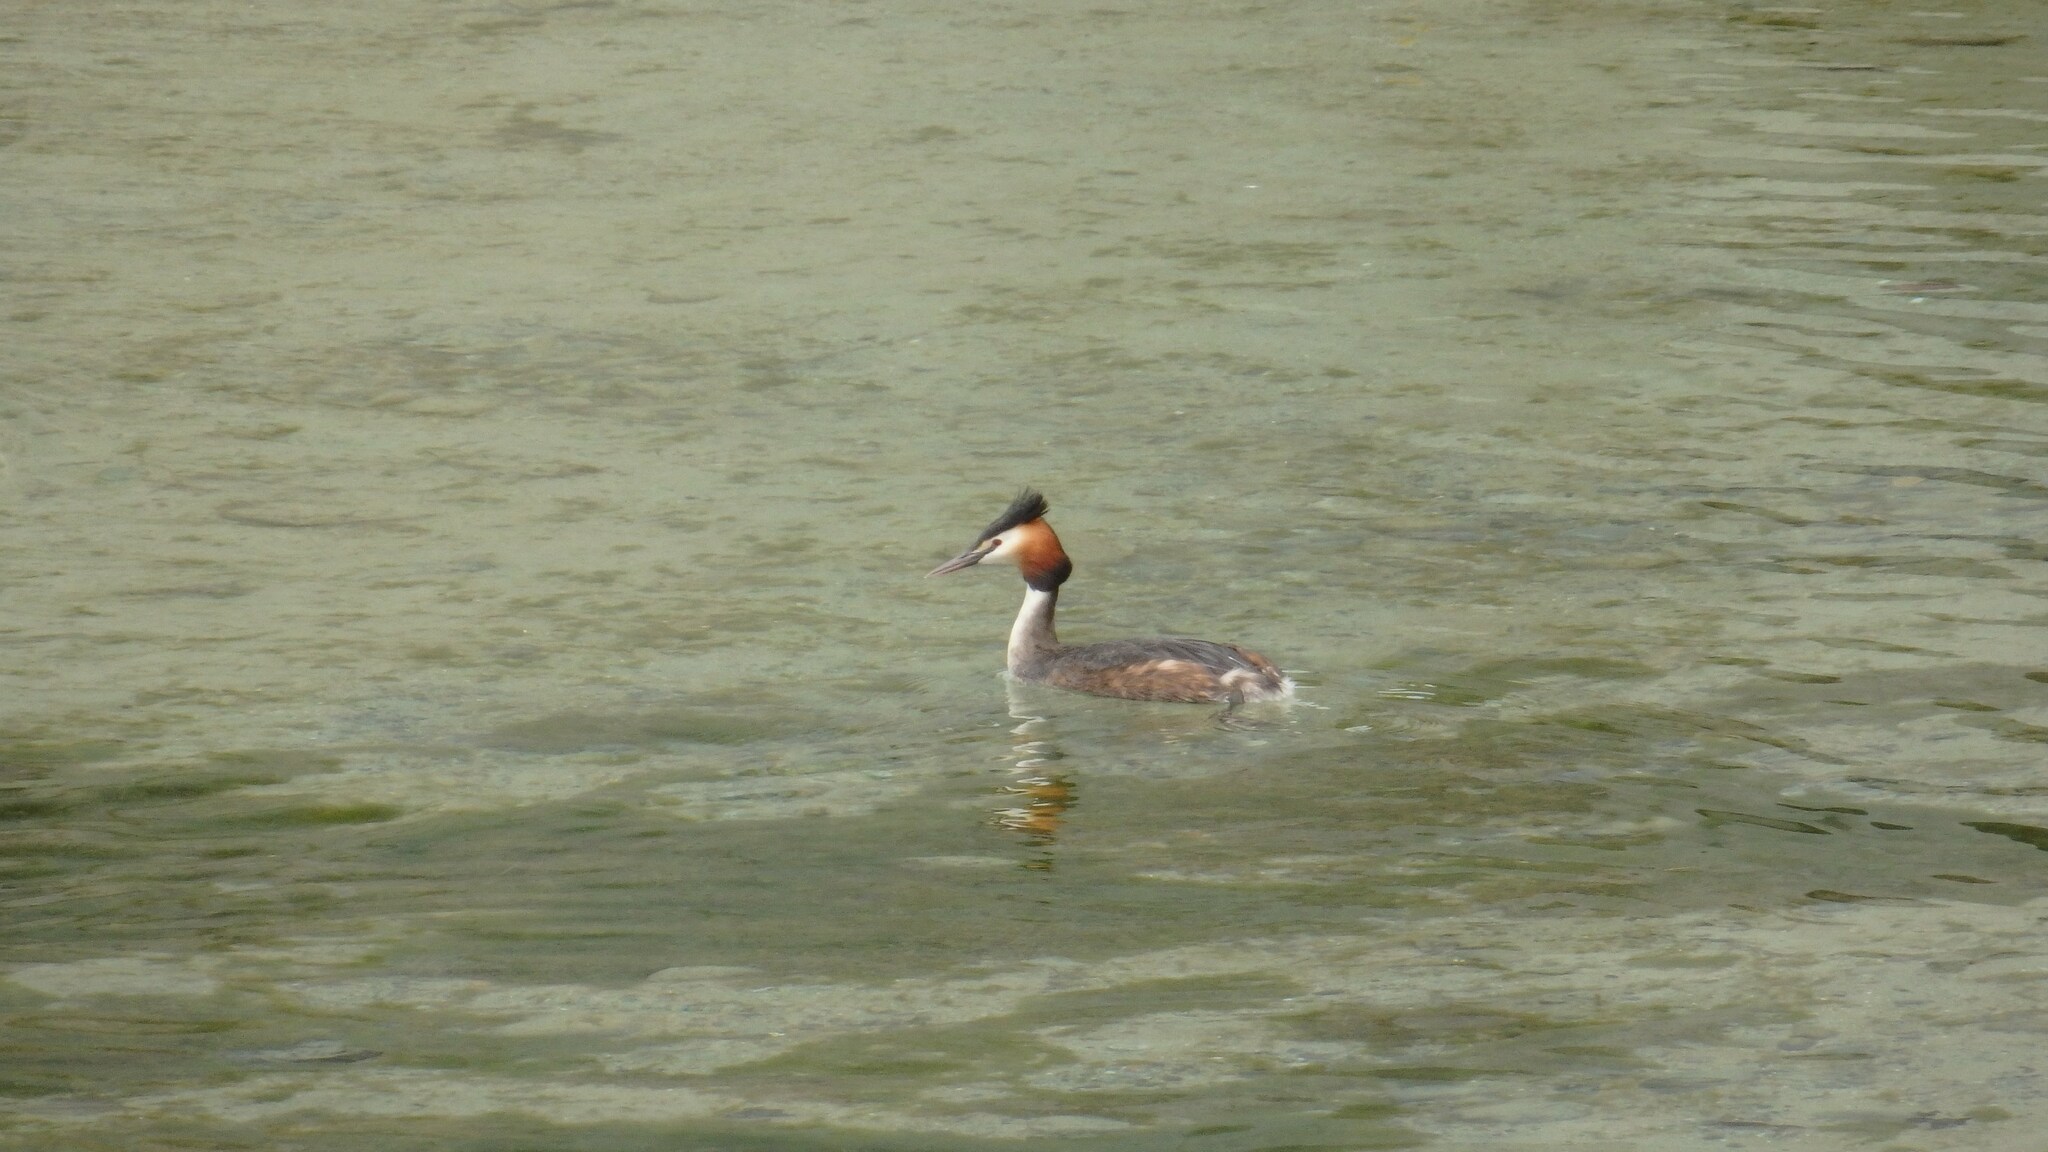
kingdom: Animalia
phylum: Chordata
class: Aves
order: Podicipediformes
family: Podicipedidae
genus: Podiceps
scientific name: Podiceps cristatus
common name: Great crested grebe
